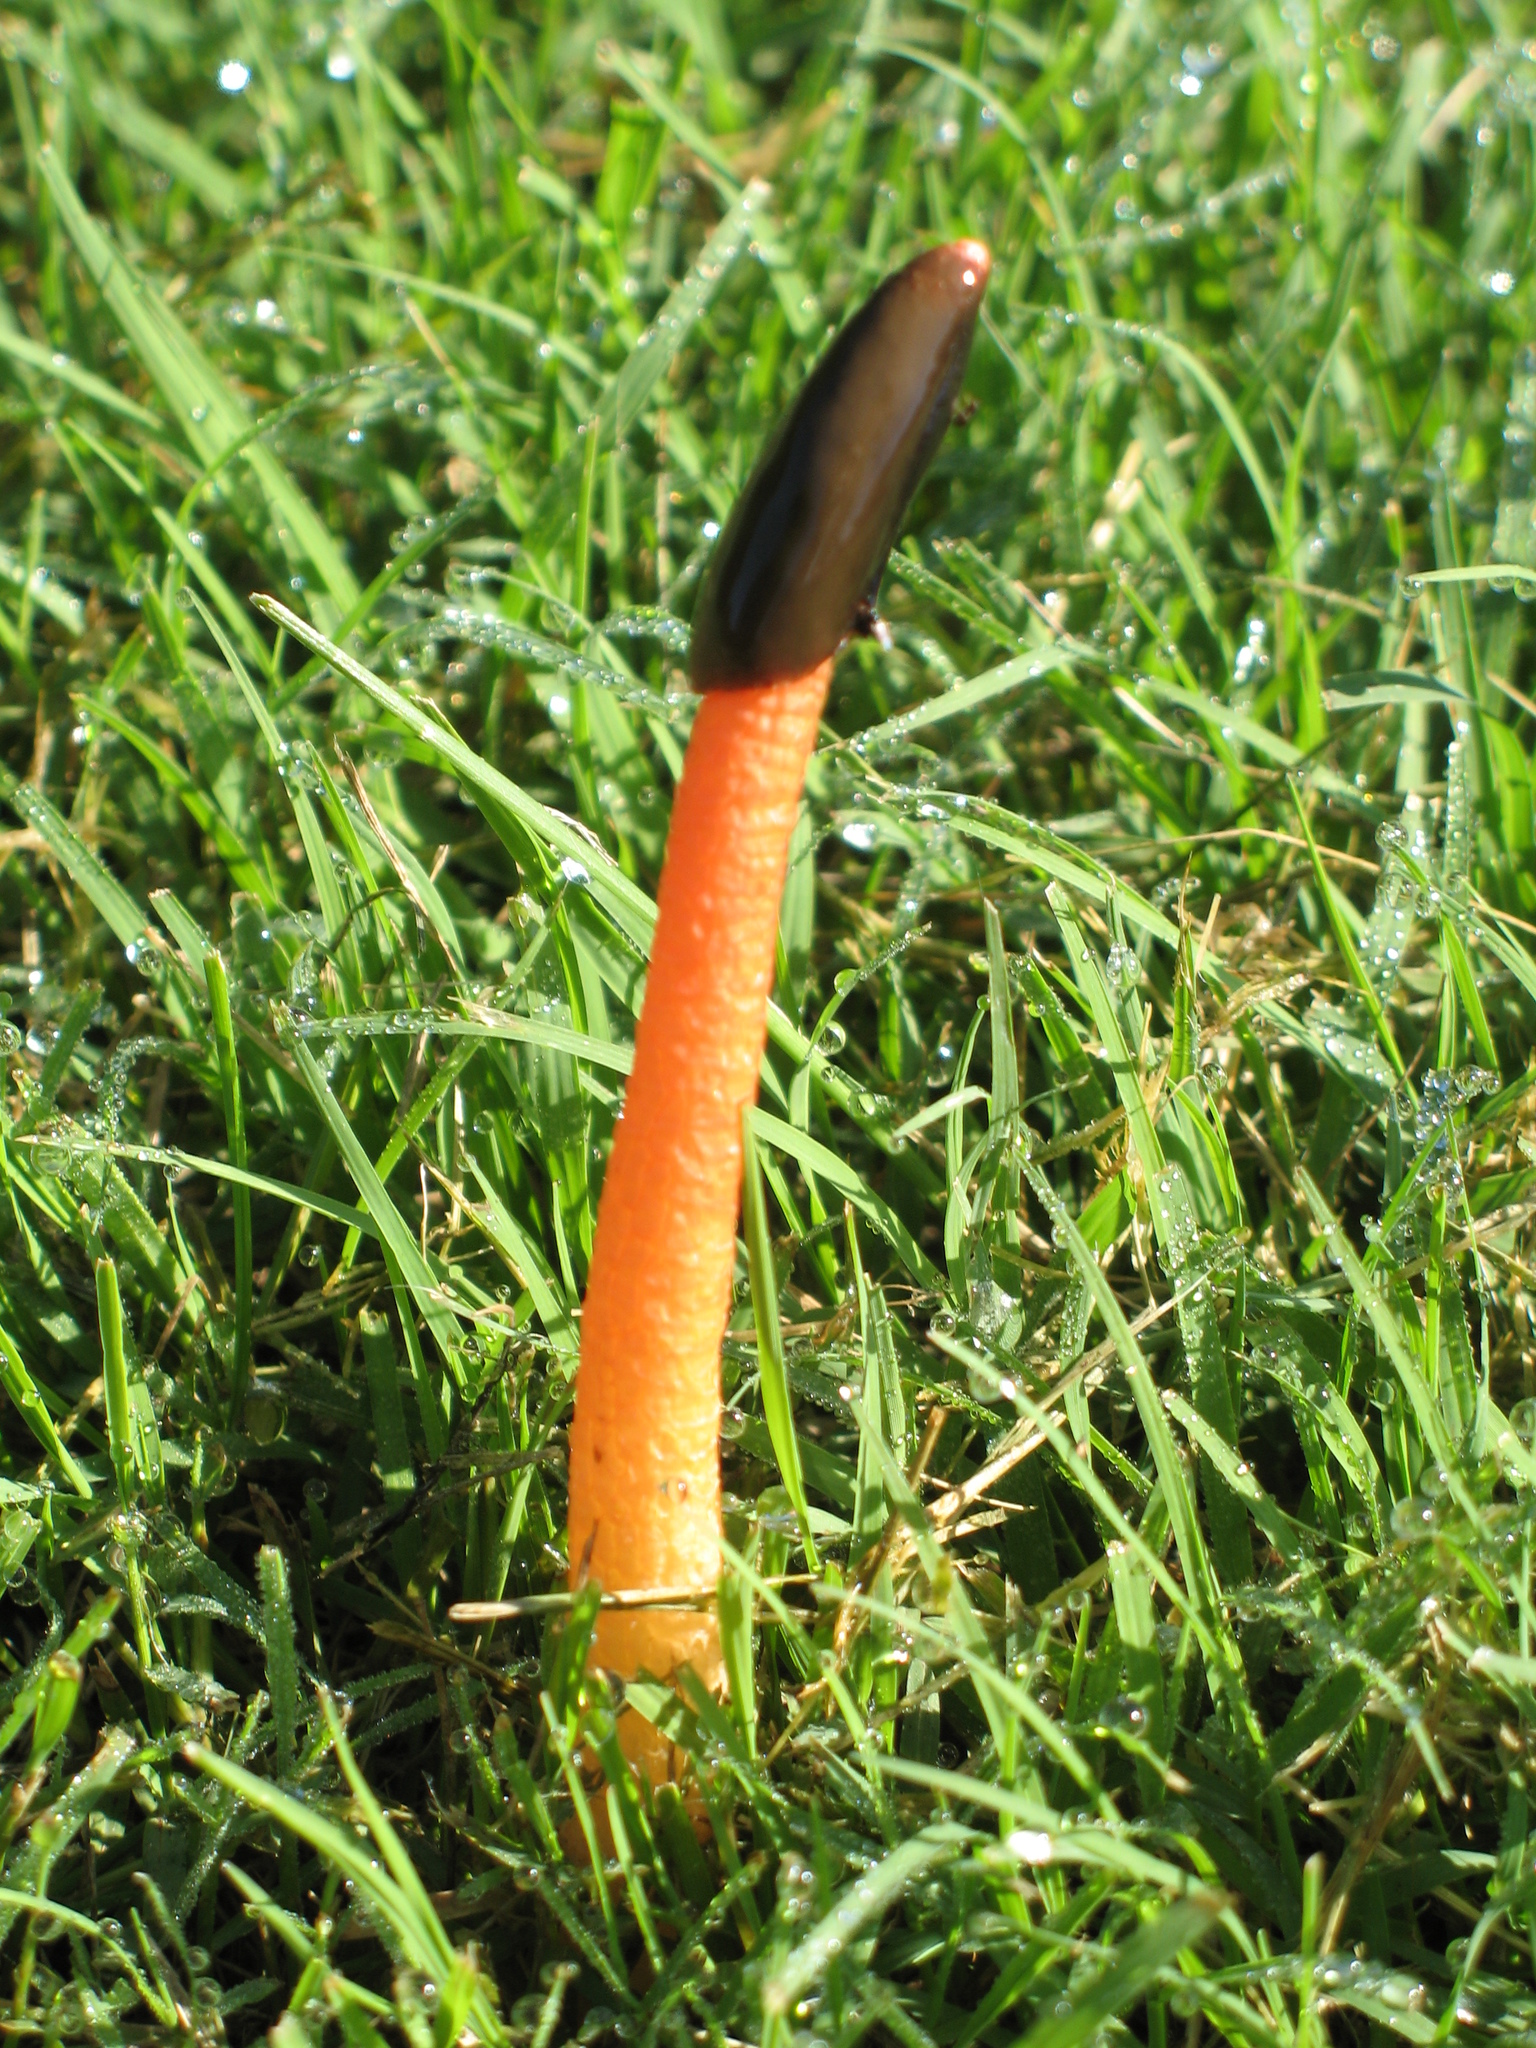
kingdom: Fungi
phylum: Basidiomycota
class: Agaricomycetes
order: Phallales
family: Phallaceae
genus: Mutinus
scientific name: Mutinus elegans
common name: Devil's dipstick
